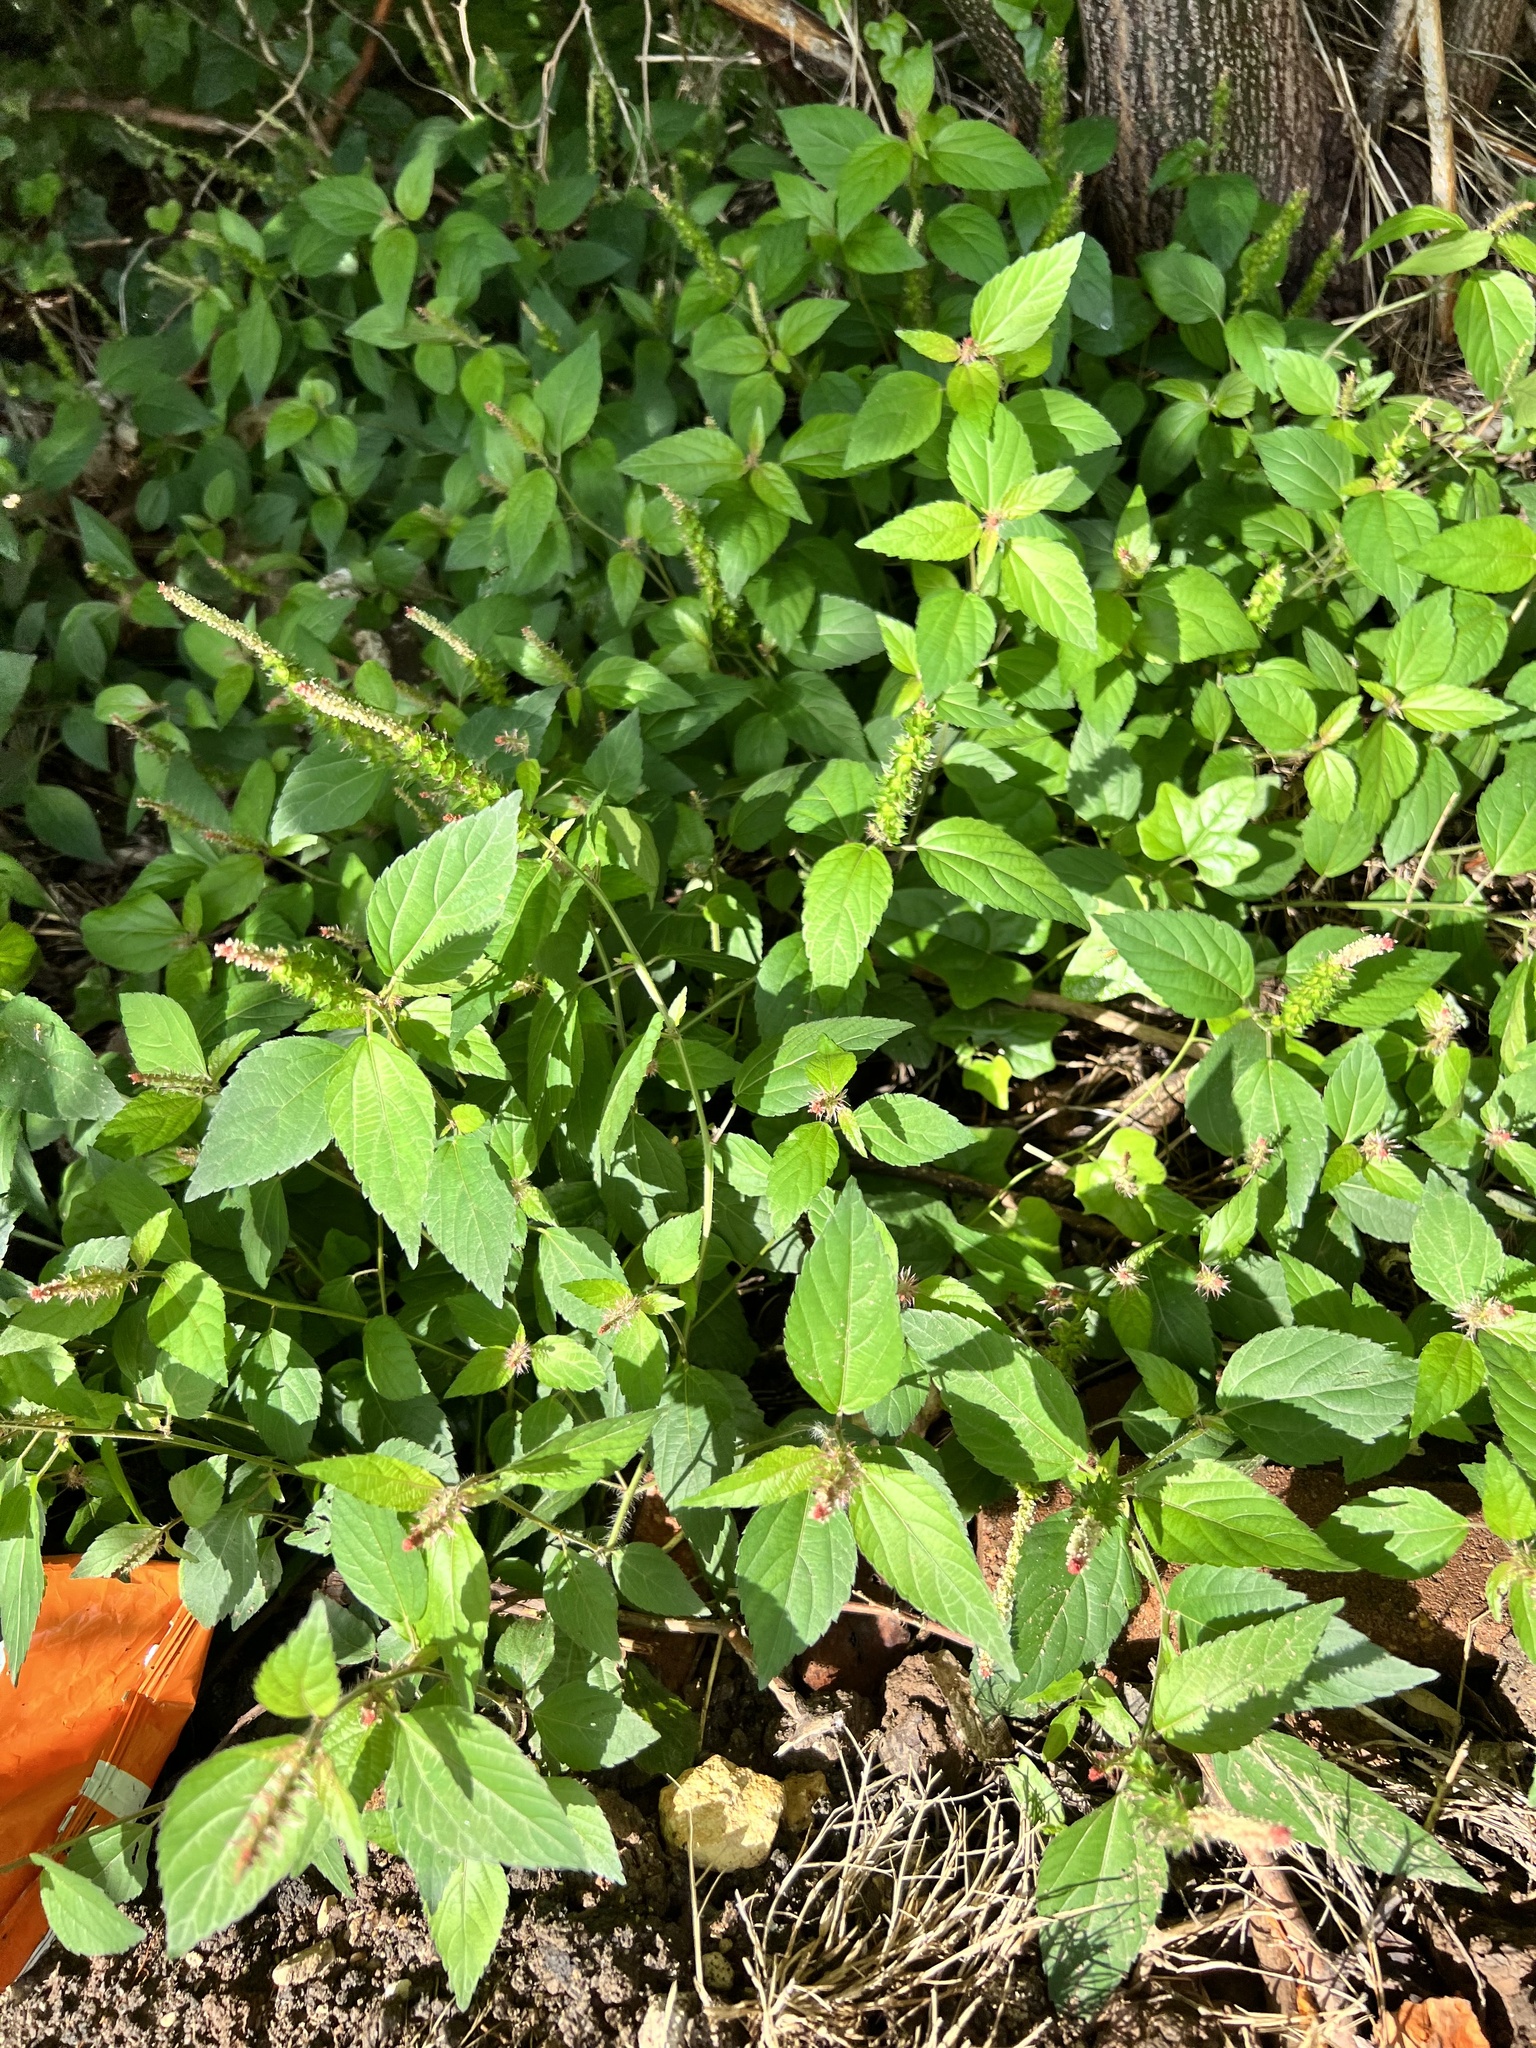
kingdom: Plantae
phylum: Tracheophyta
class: Magnoliopsida
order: Malpighiales
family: Euphorbiaceae
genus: Acalypha
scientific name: Acalypha phleoides
